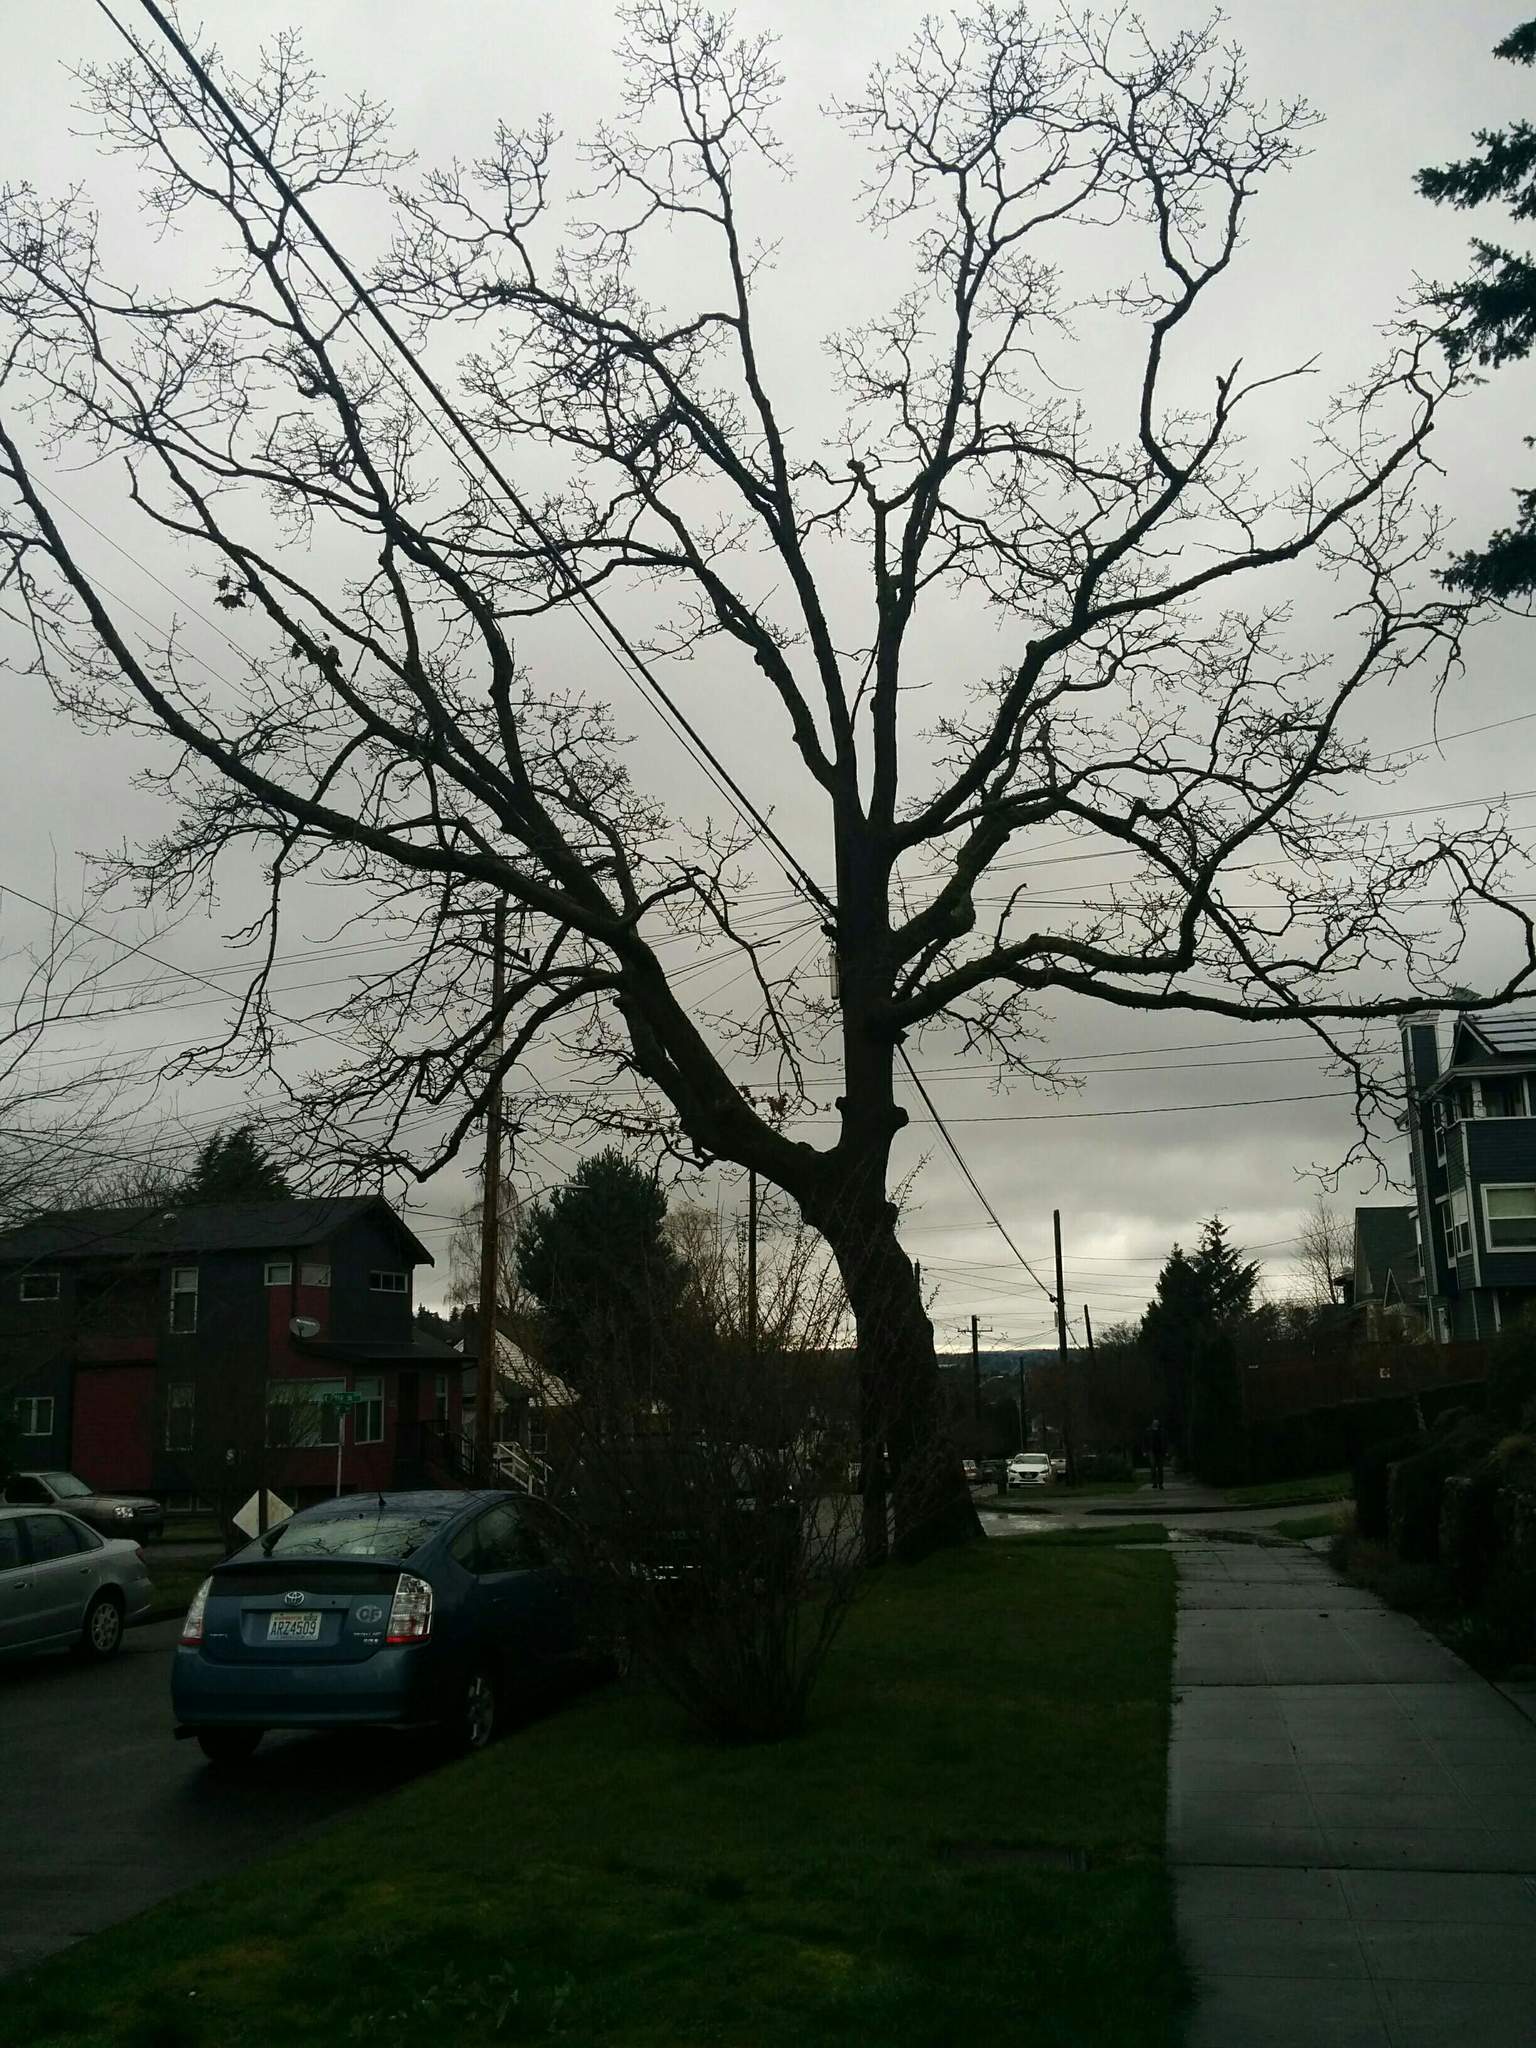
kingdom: Plantae
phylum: Tracheophyta
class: Magnoliopsida
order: Fagales
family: Fagaceae
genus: Quercus
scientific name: Quercus garryana
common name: Garry oak
